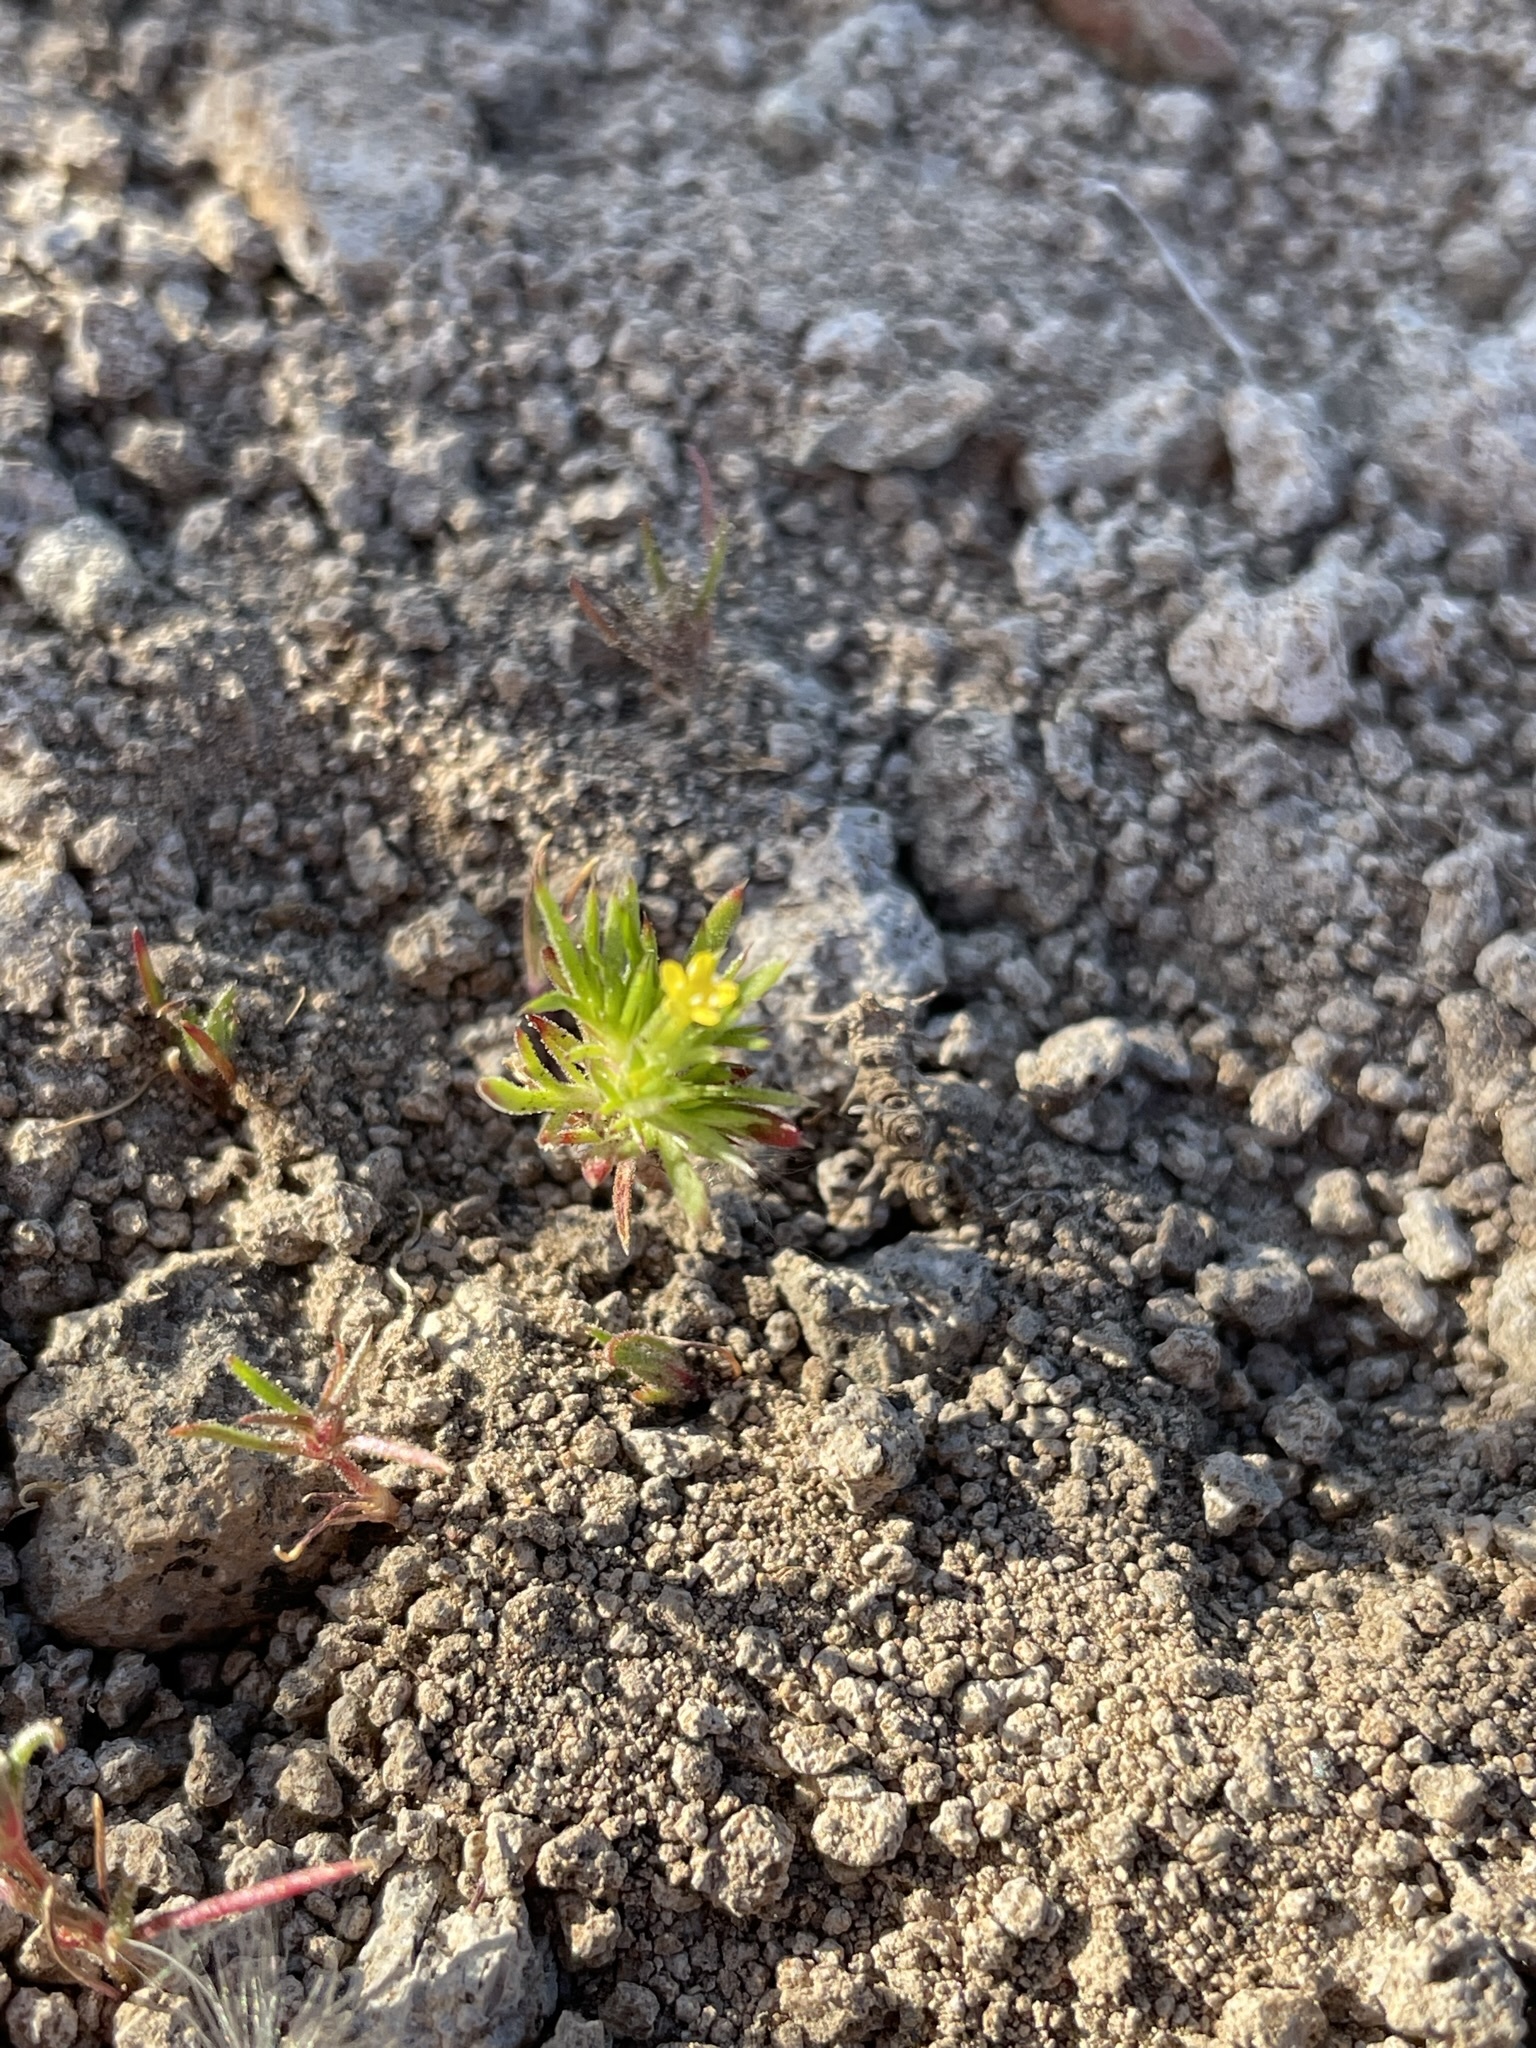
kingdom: Plantae
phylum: Tracheophyta
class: Magnoliopsida
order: Ericales
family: Polemoniaceae
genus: Navarretia
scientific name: Navarretia breweri
